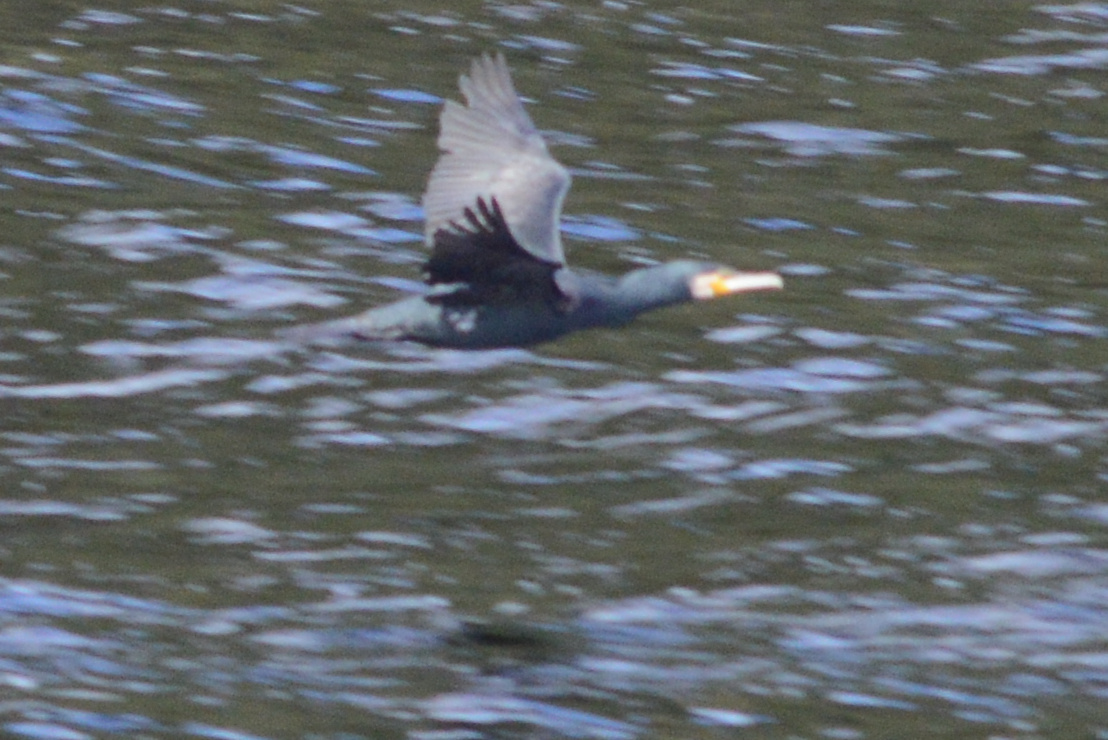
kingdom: Animalia
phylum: Chordata
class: Aves
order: Suliformes
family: Phalacrocoracidae
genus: Phalacrocorax
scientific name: Phalacrocorax carbo
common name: Great cormorant
